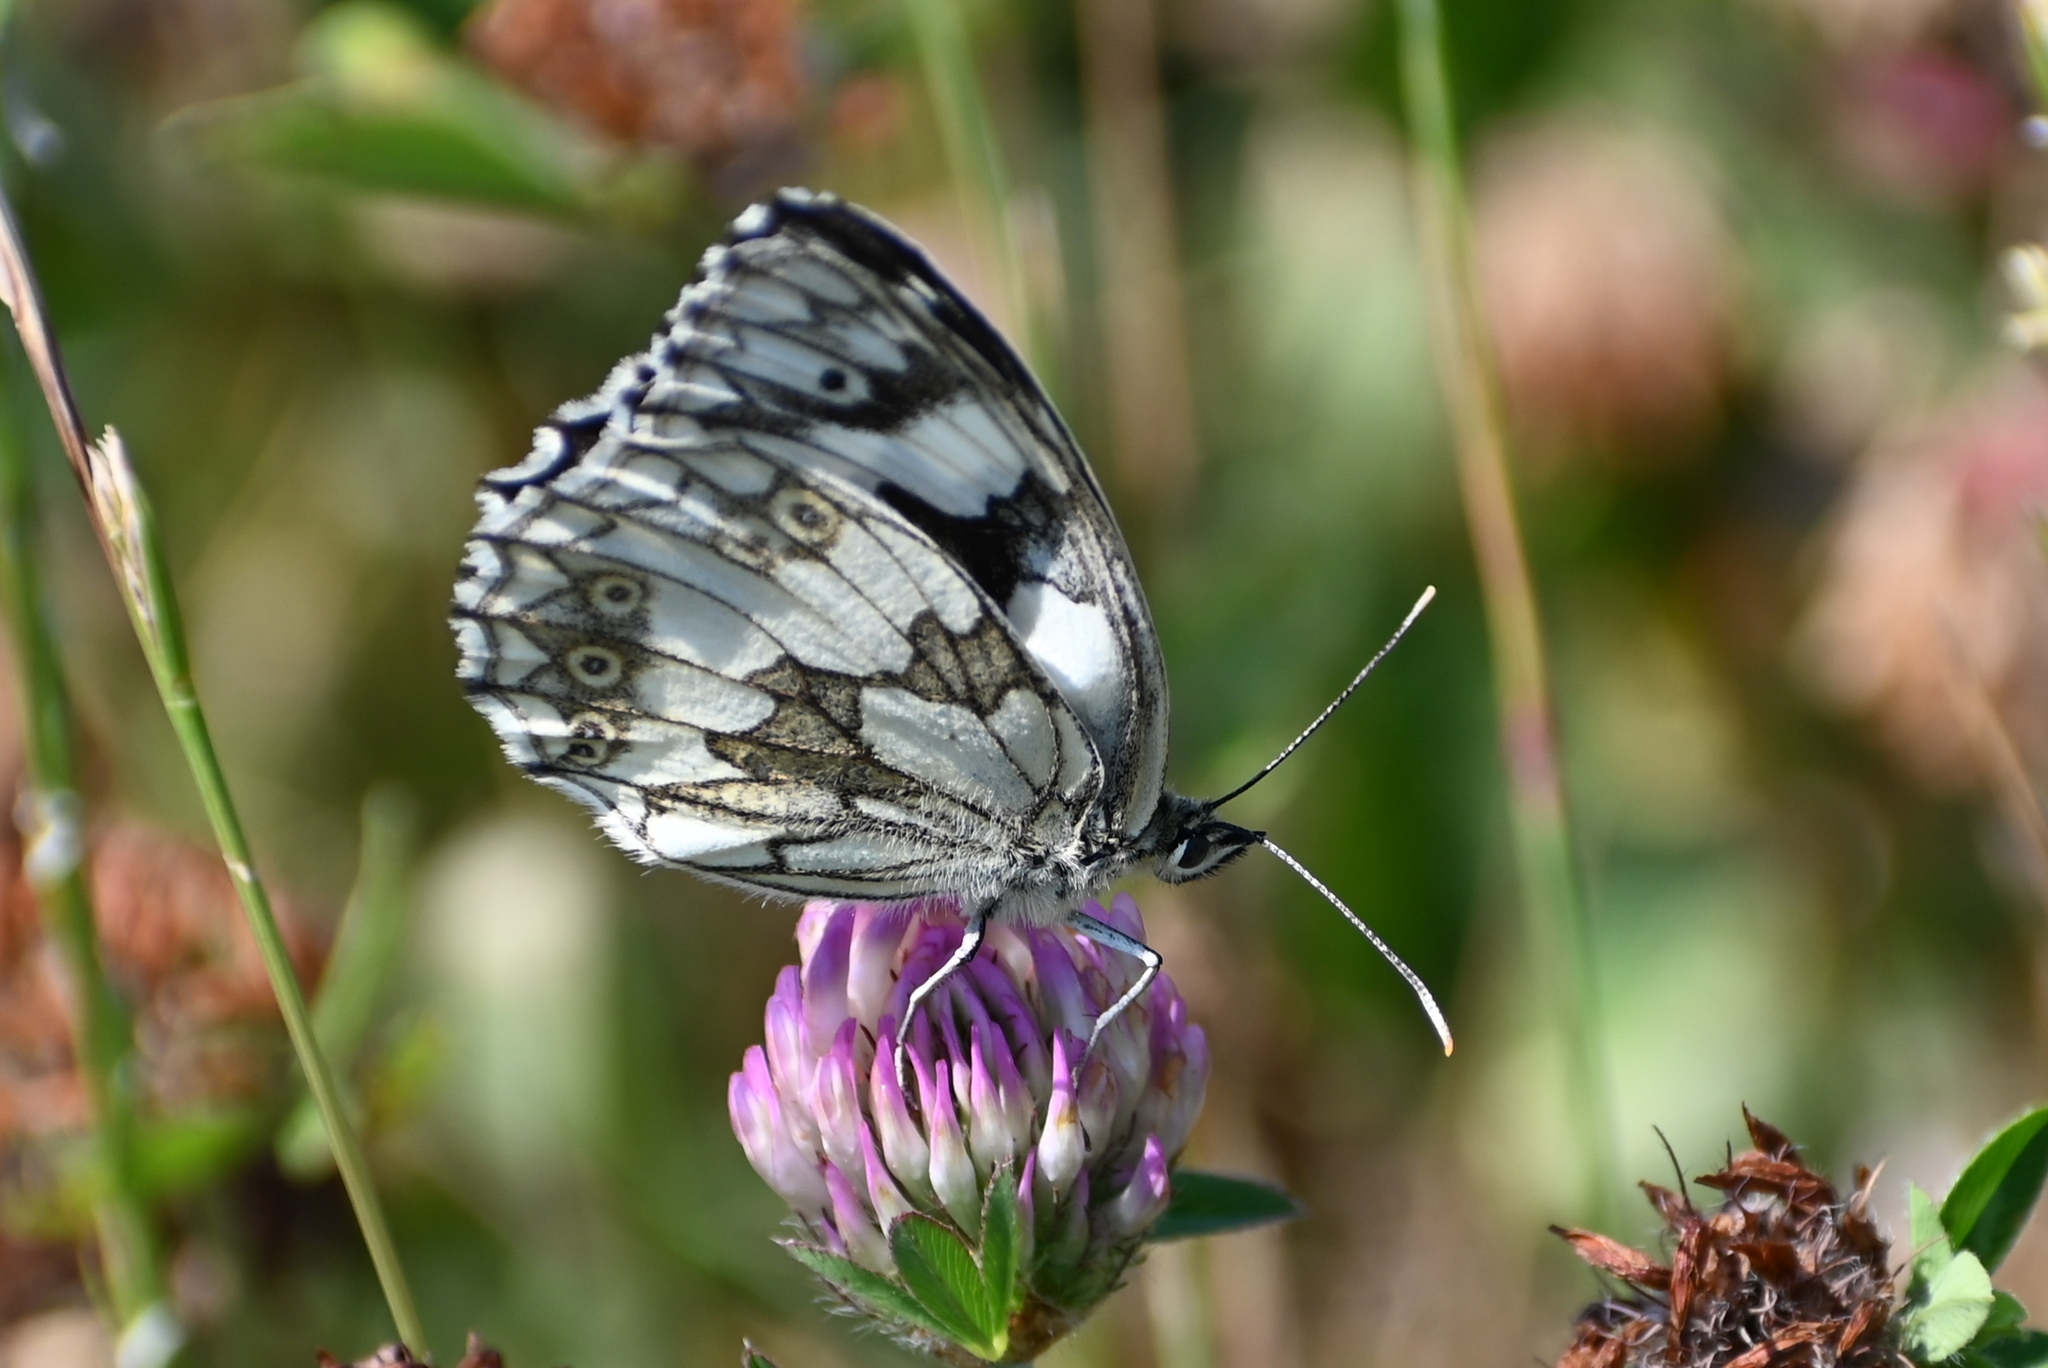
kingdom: Animalia
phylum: Arthropoda
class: Insecta
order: Lepidoptera
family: Nymphalidae
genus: Melanargia
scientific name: Melanargia galathea
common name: Marbled white
